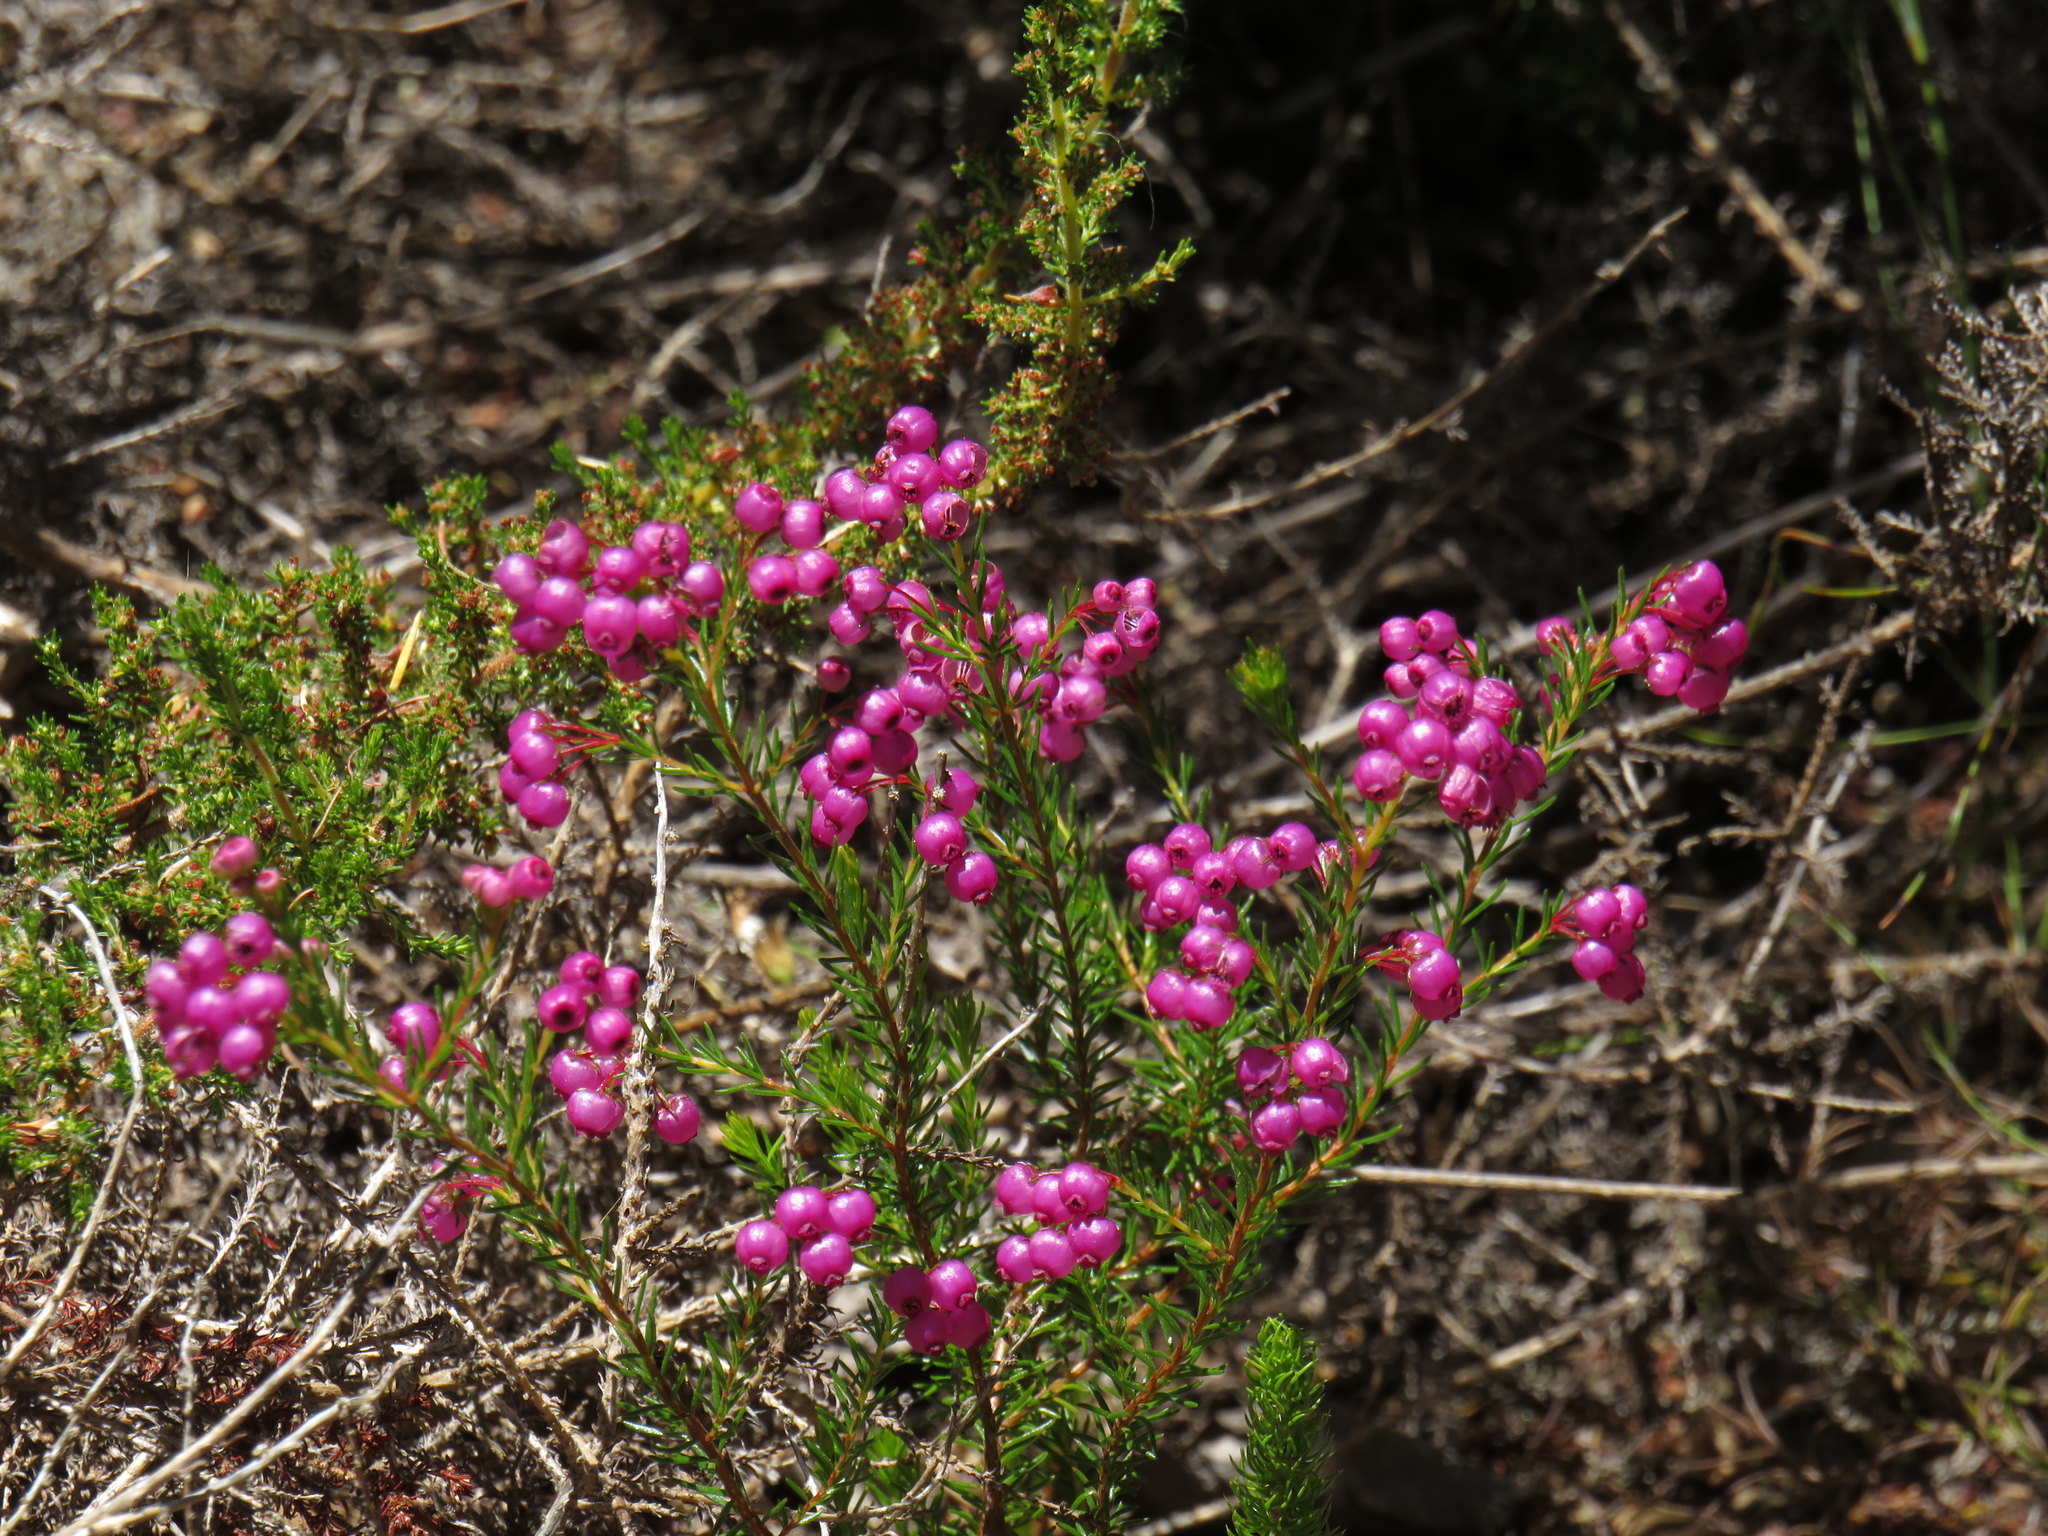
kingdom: Plantae
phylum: Tracheophyta
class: Magnoliopsida
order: Ericales
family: Ericaceae
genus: Erica
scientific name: Erica multumbellifera
